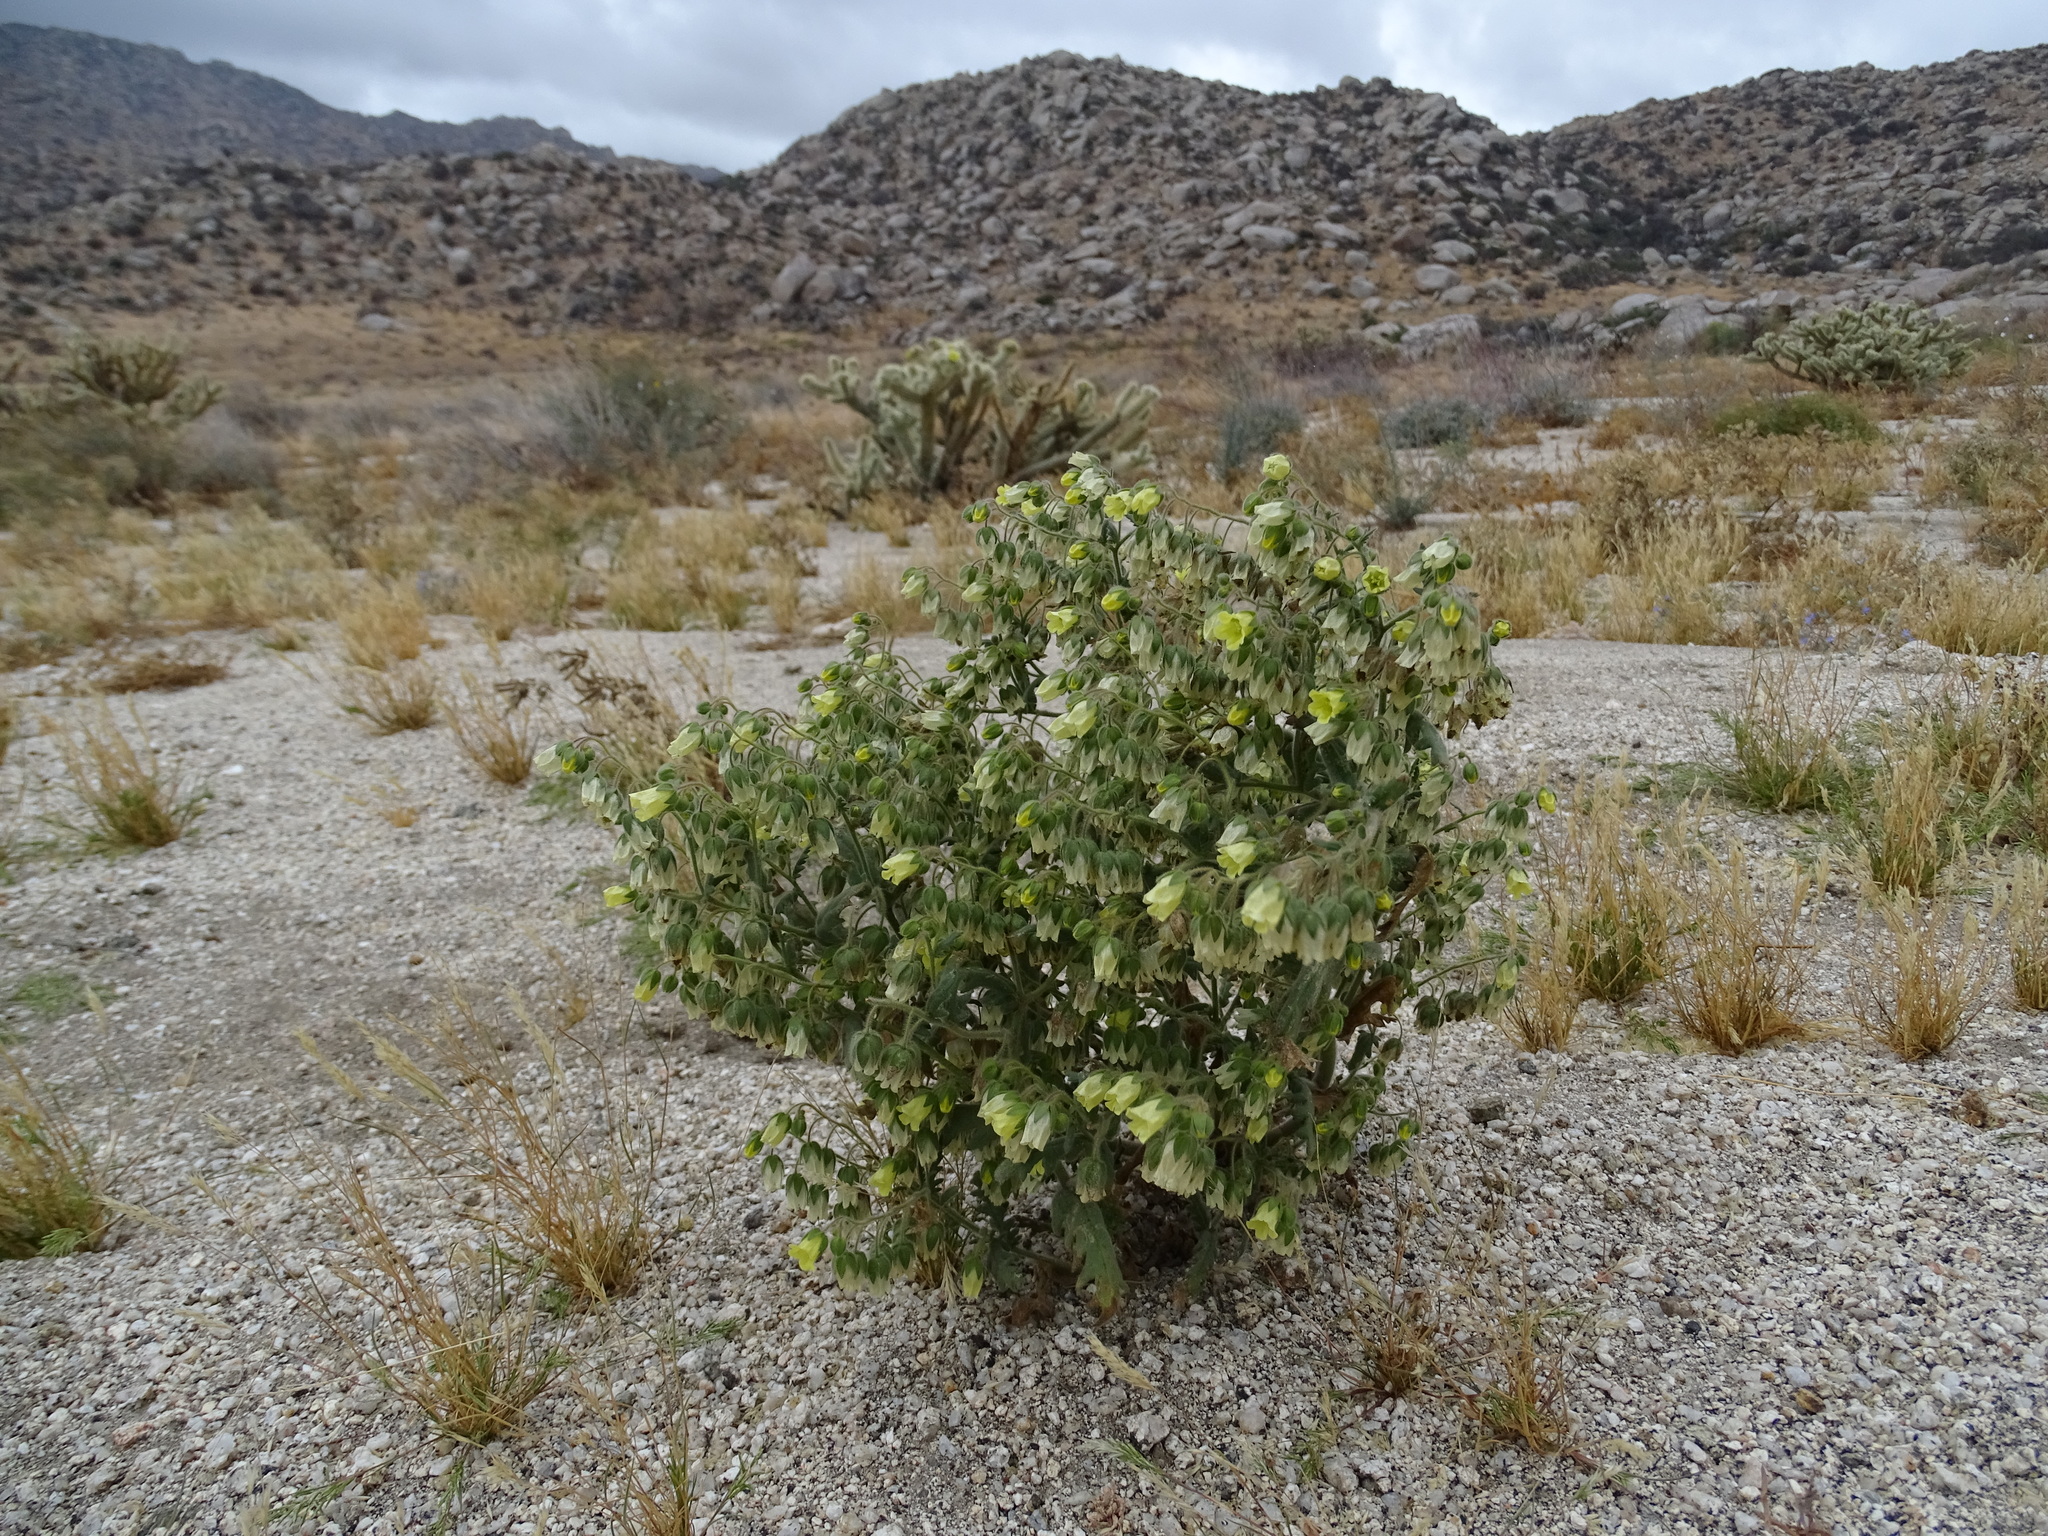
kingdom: Plantae
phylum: Tracheophyta
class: Magnoliopsida
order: Boraginales
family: Hydrophyllaceae
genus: Emmenanthe
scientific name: Emmenanthe penduliflora
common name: Whispering-bells
